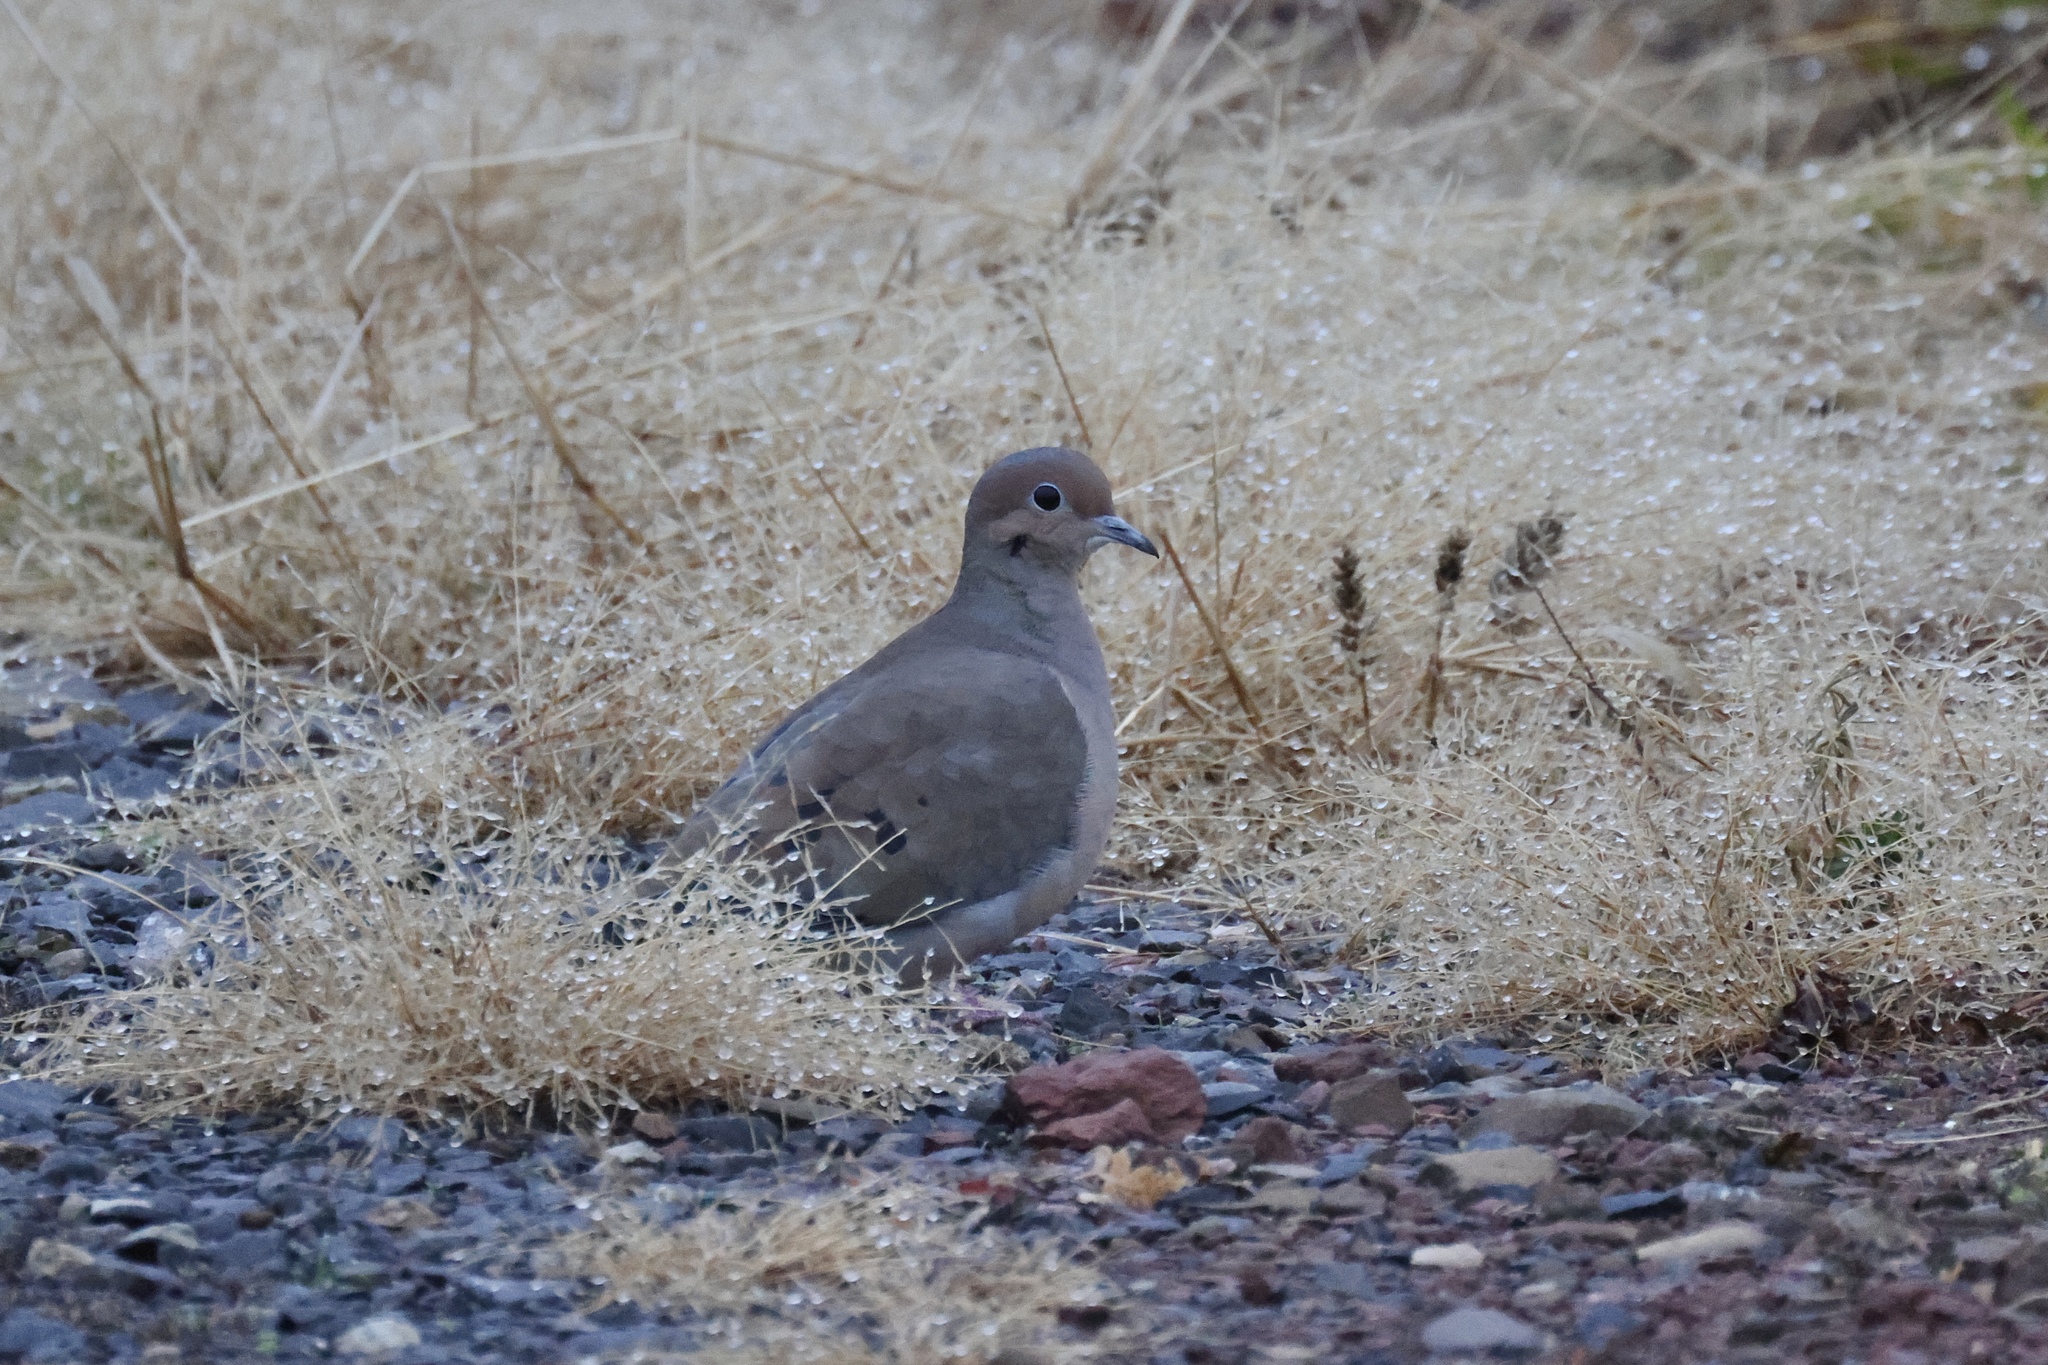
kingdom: Animalia
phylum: Chordata
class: Aves
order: Columbiformes
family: Columbidae
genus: Zenaida
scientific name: Zenaida macroura
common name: Mourning dove
